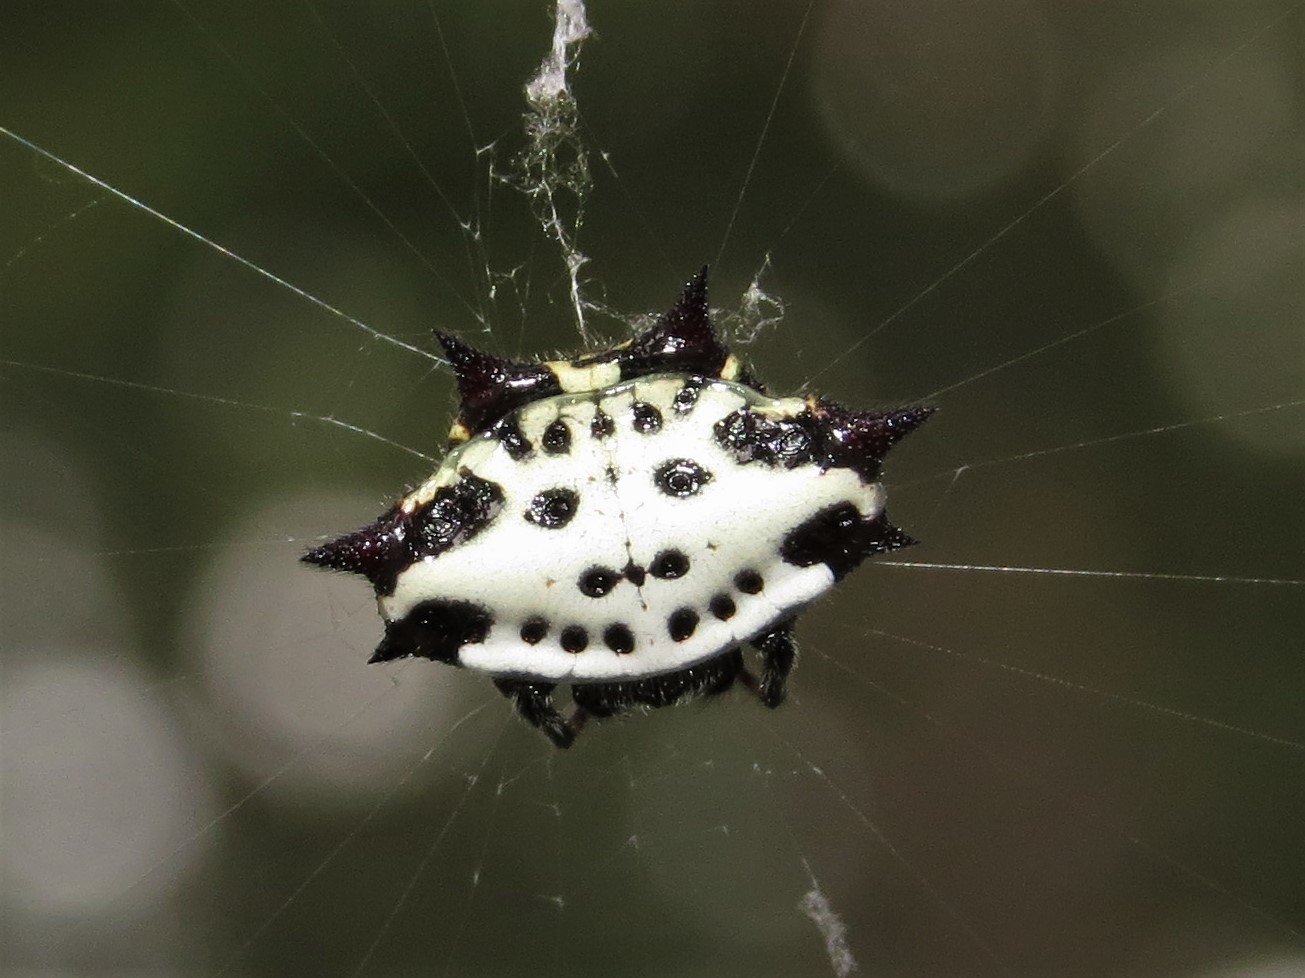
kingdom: Animalia
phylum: Arthropoda
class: Arachnida
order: Araneae
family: Araneidae
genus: Gasteracantha
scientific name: Gasteracantha cancriformis
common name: Orb weavers
